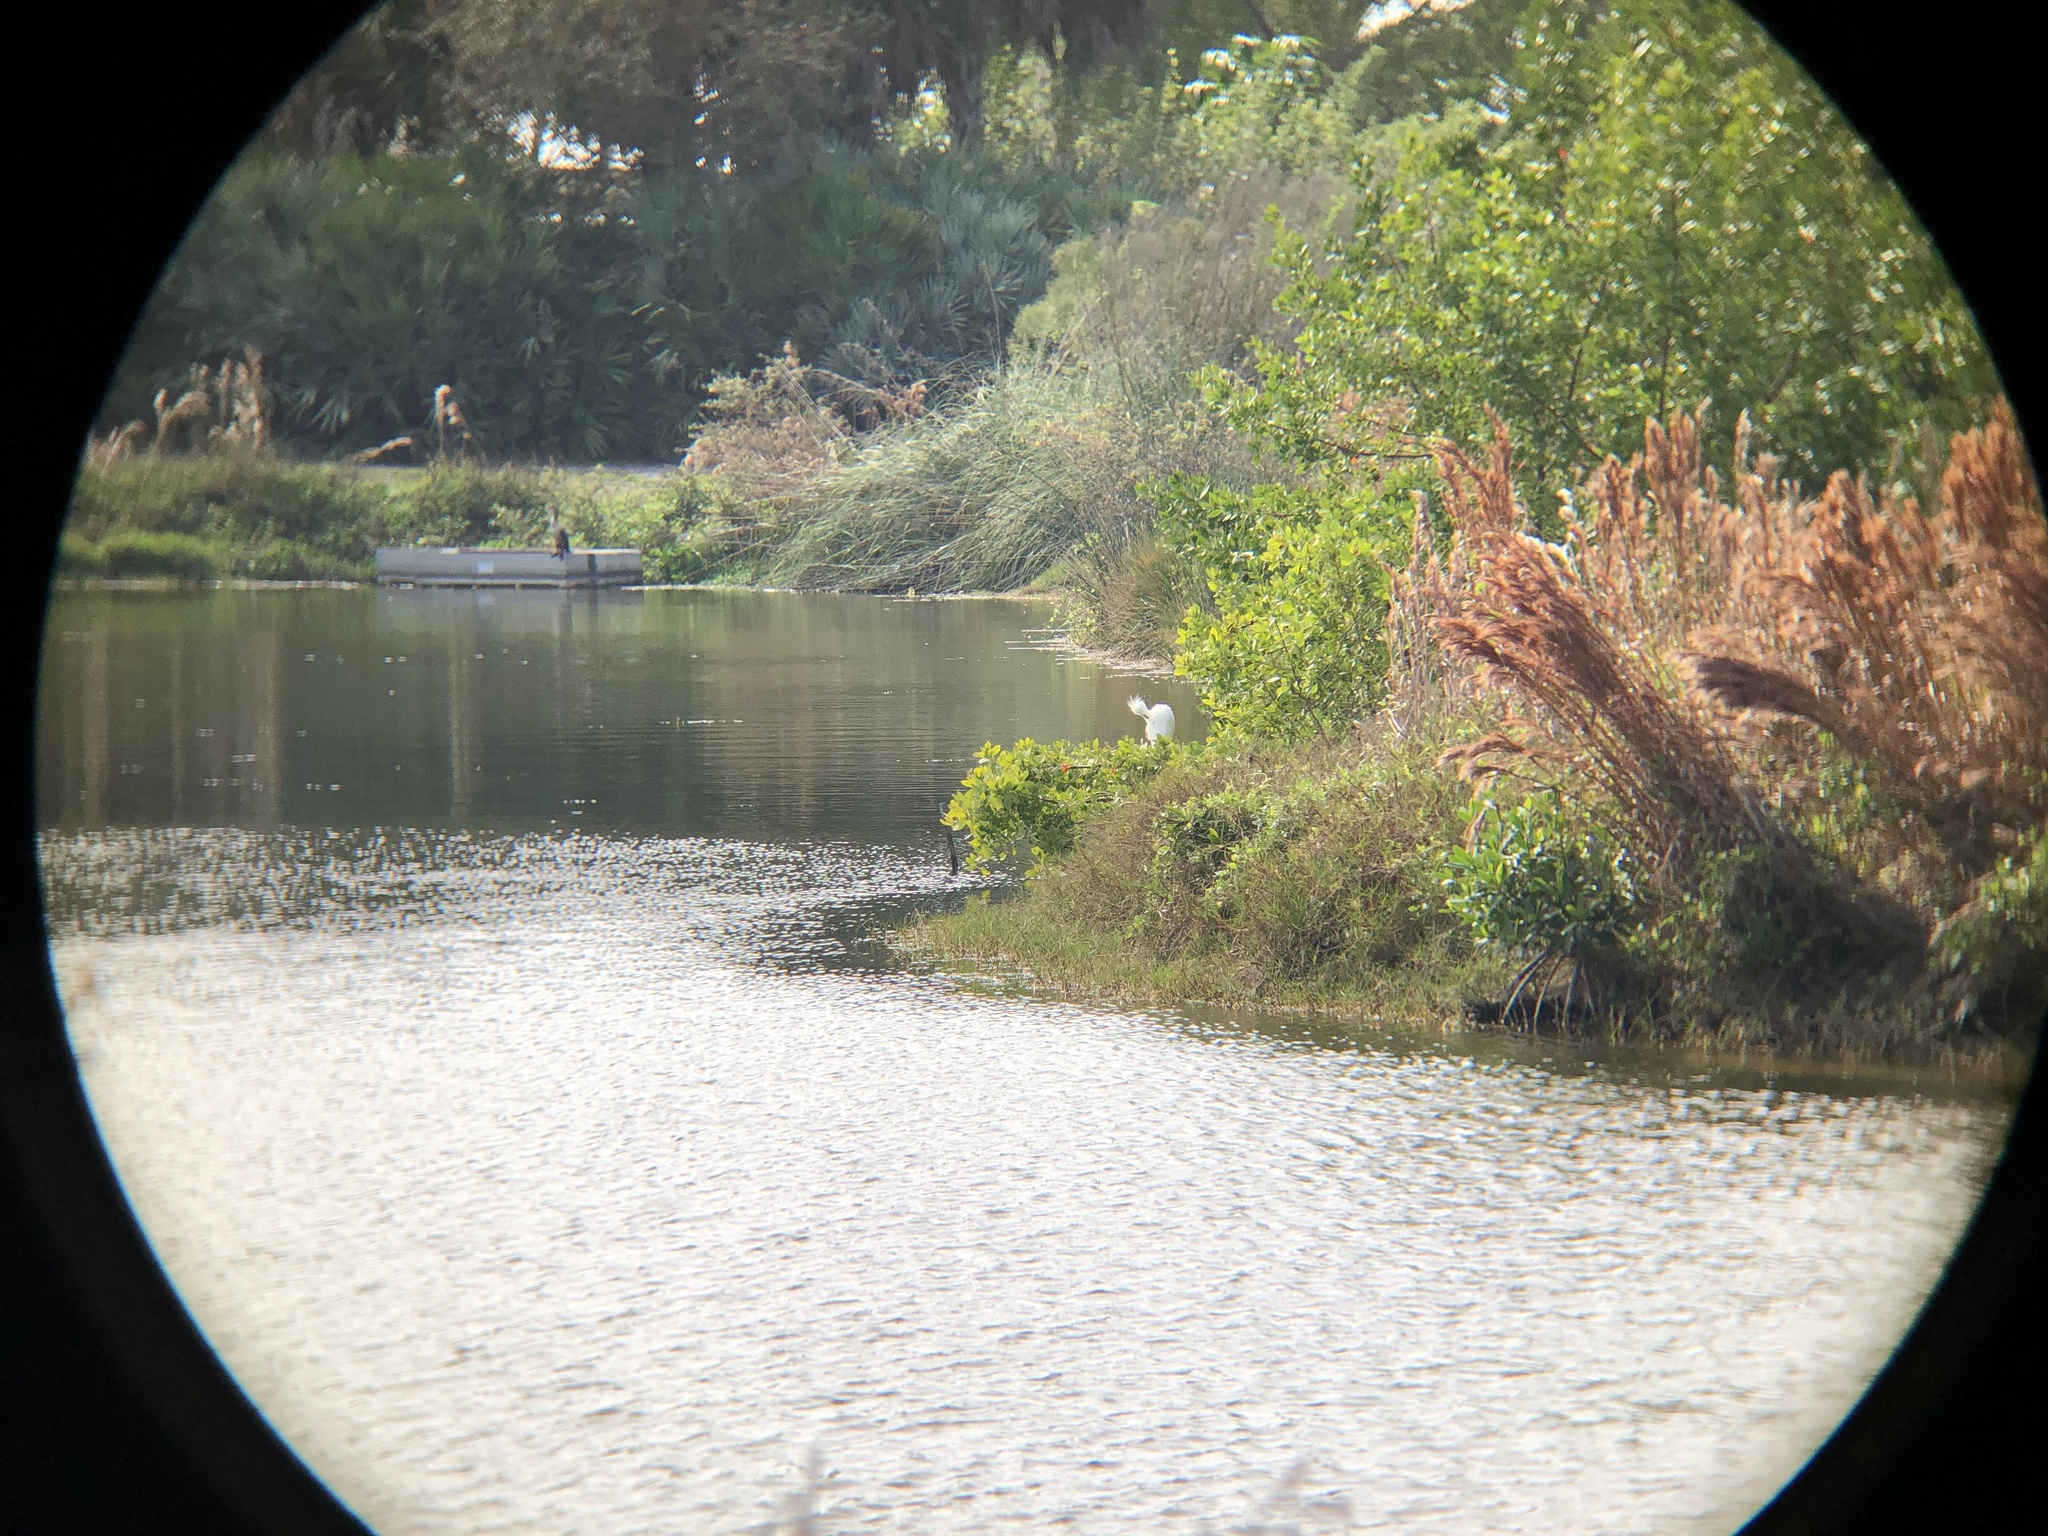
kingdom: Animalia
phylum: Chordata
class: Aves
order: Pelecaniformes
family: Ardeidae
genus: Egretta
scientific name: Egretta thula
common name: Snowy egret
